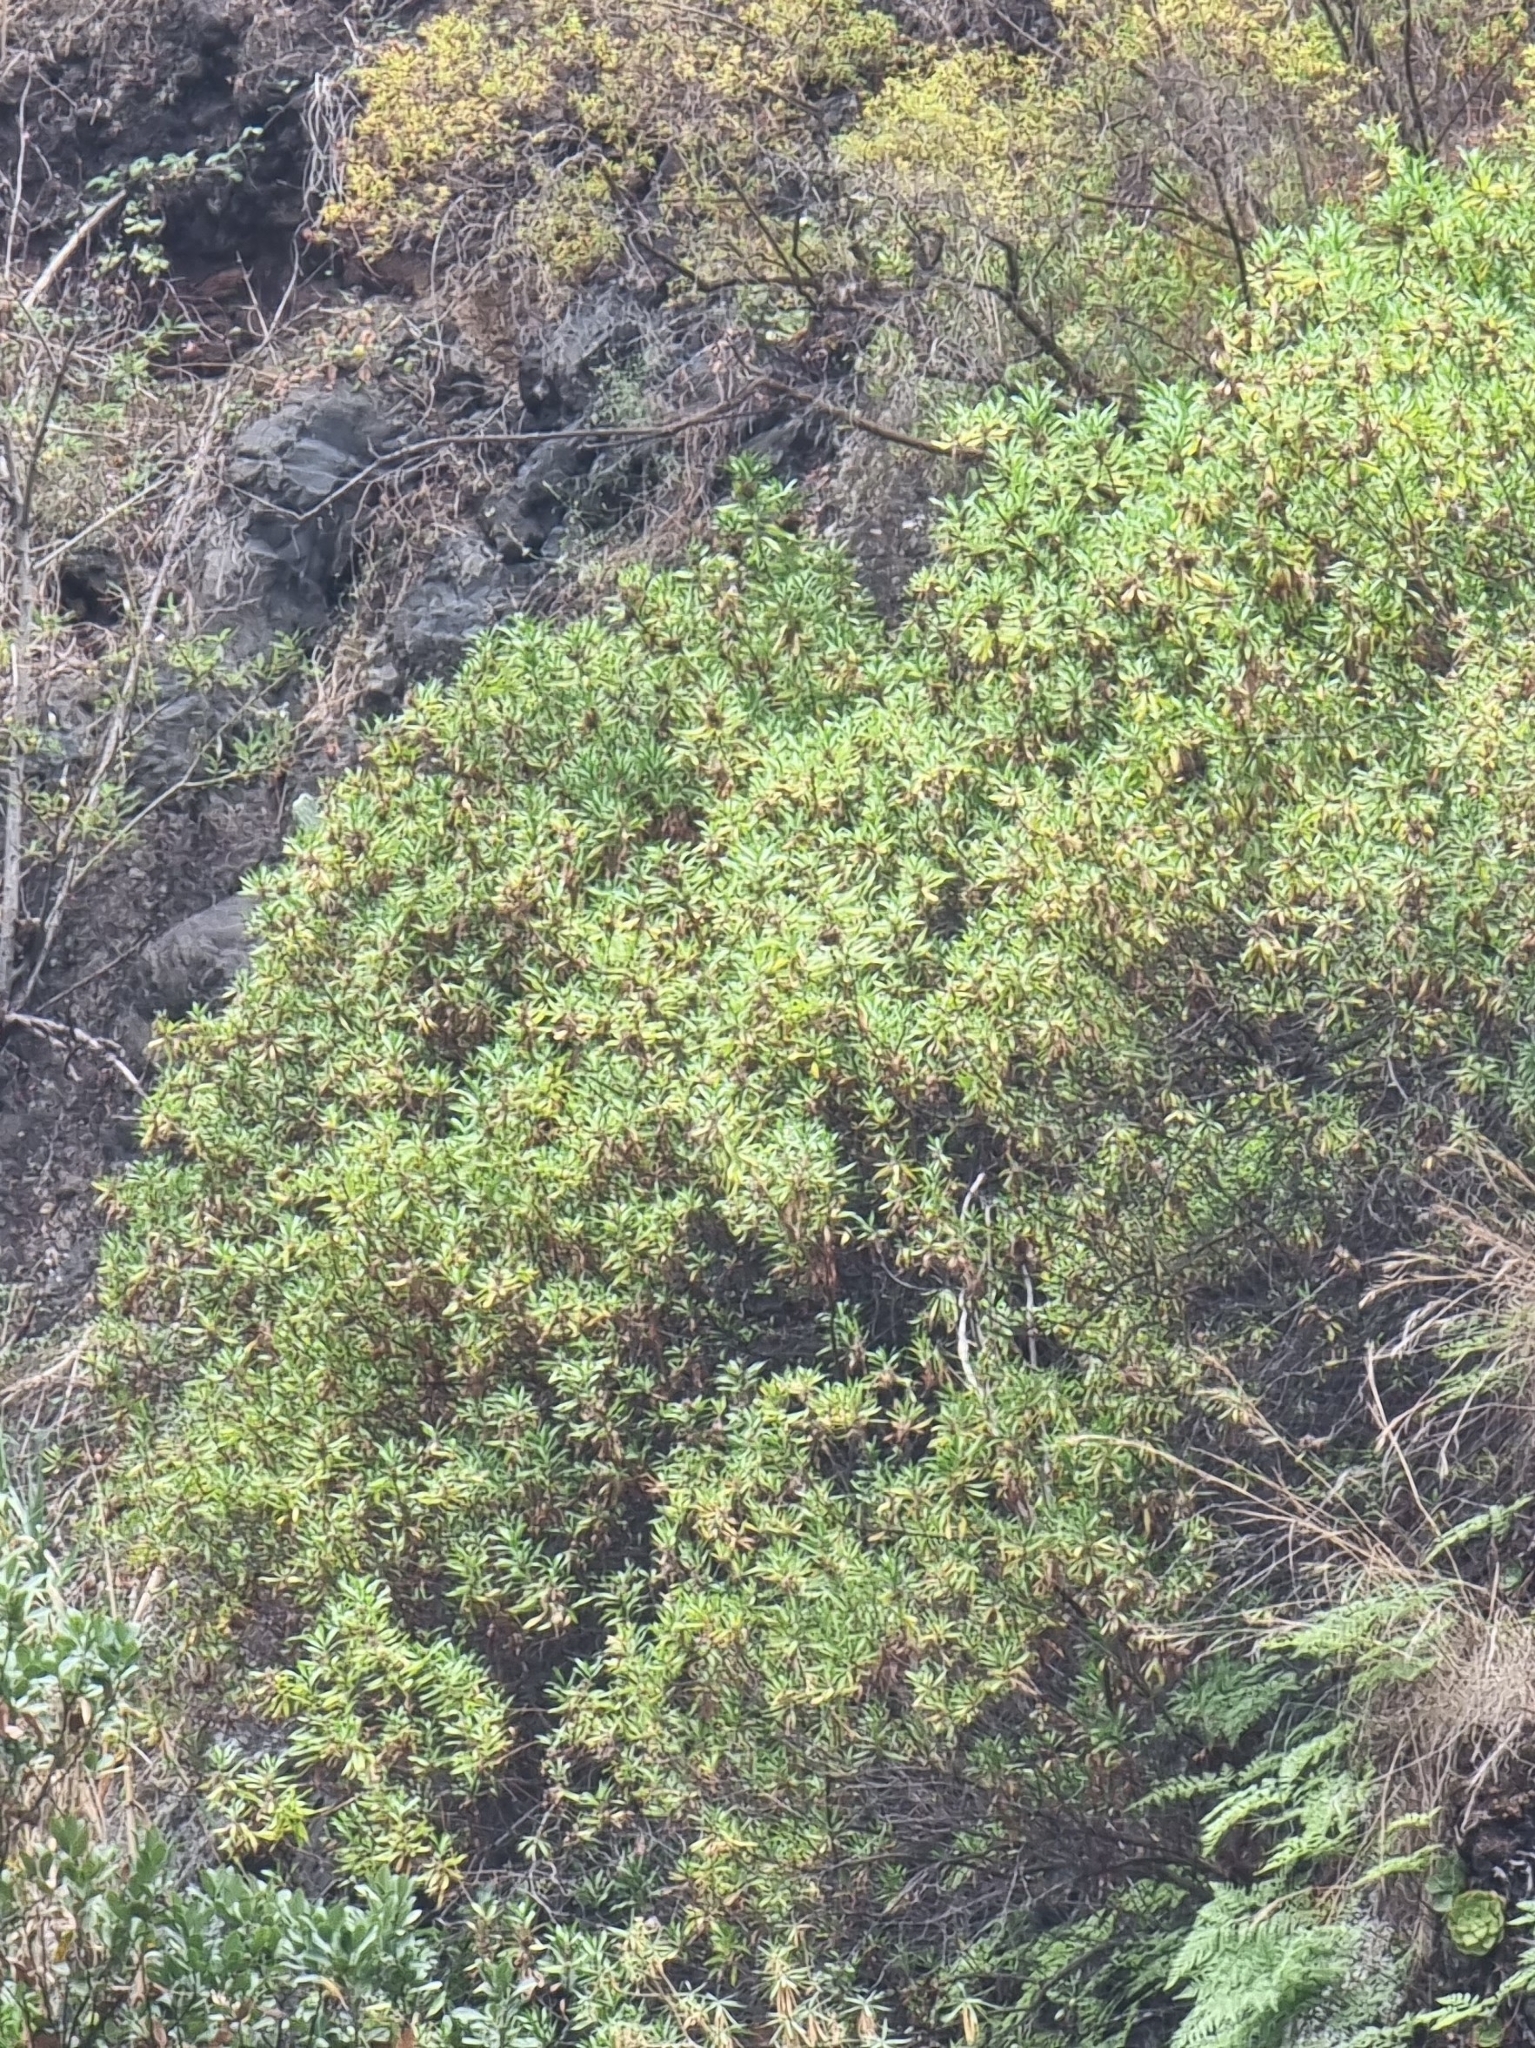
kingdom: Plantae
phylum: Tracheophyta
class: Magnoliopsida
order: Lamiales
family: Plantaginaceae
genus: Globularia
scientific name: Globularia salicina
